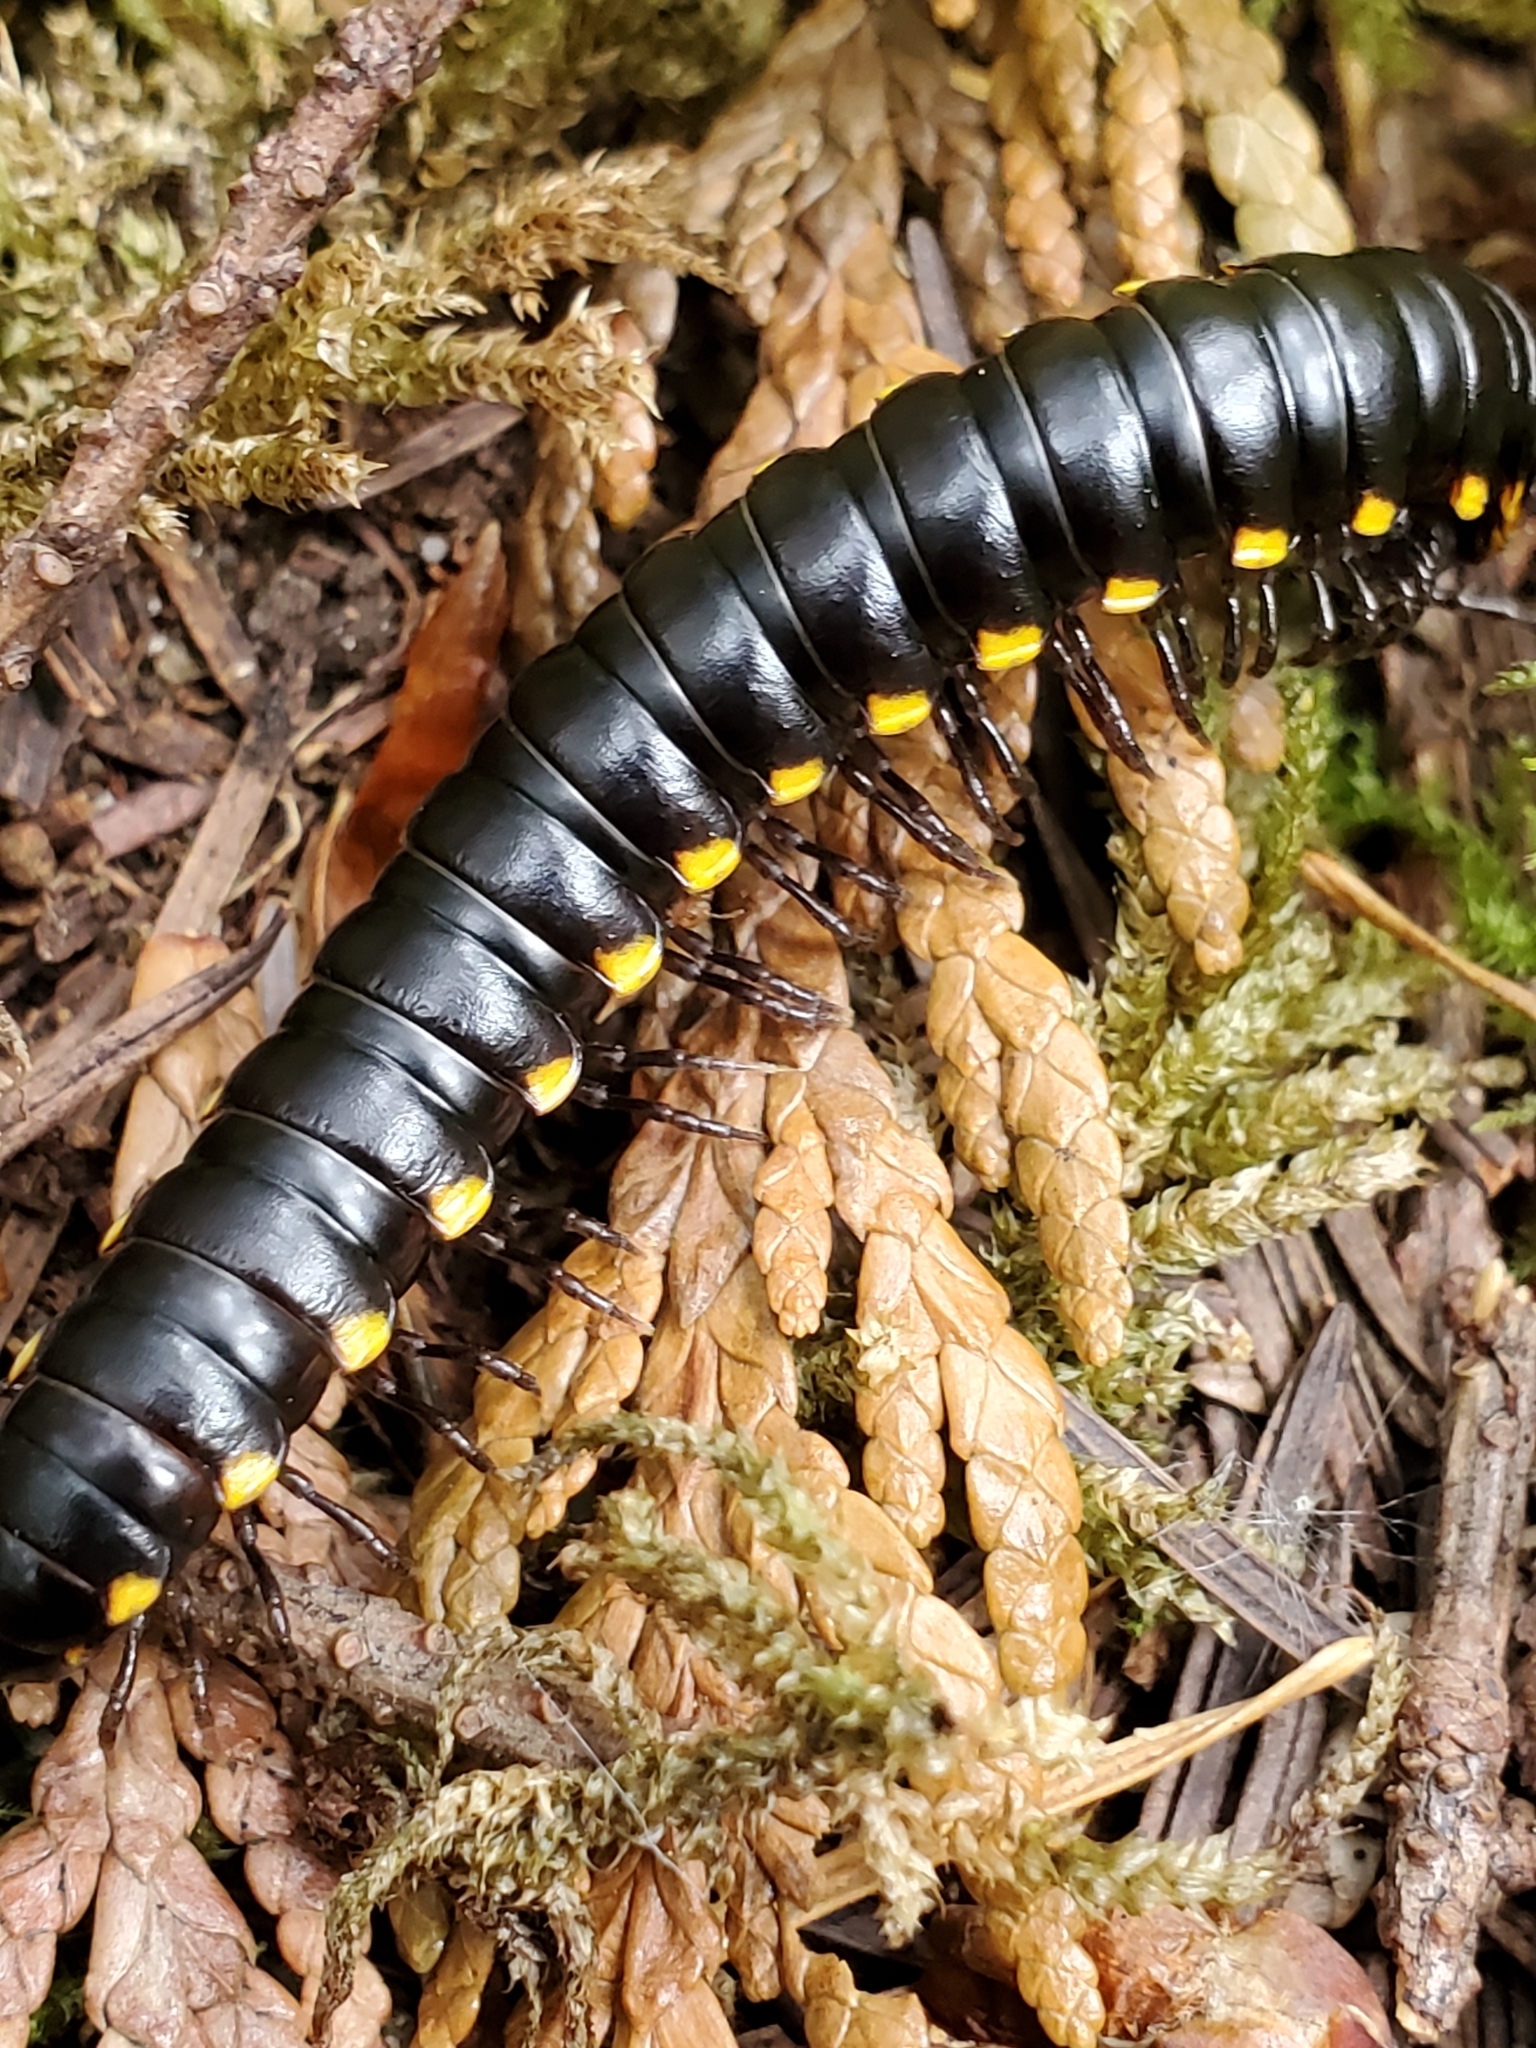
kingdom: Animalia
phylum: Arthropoda
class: Diplopoda
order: Polydesmida
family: Xystodesmidae
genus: Harpaphe
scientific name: Harpaphe haydeniana
